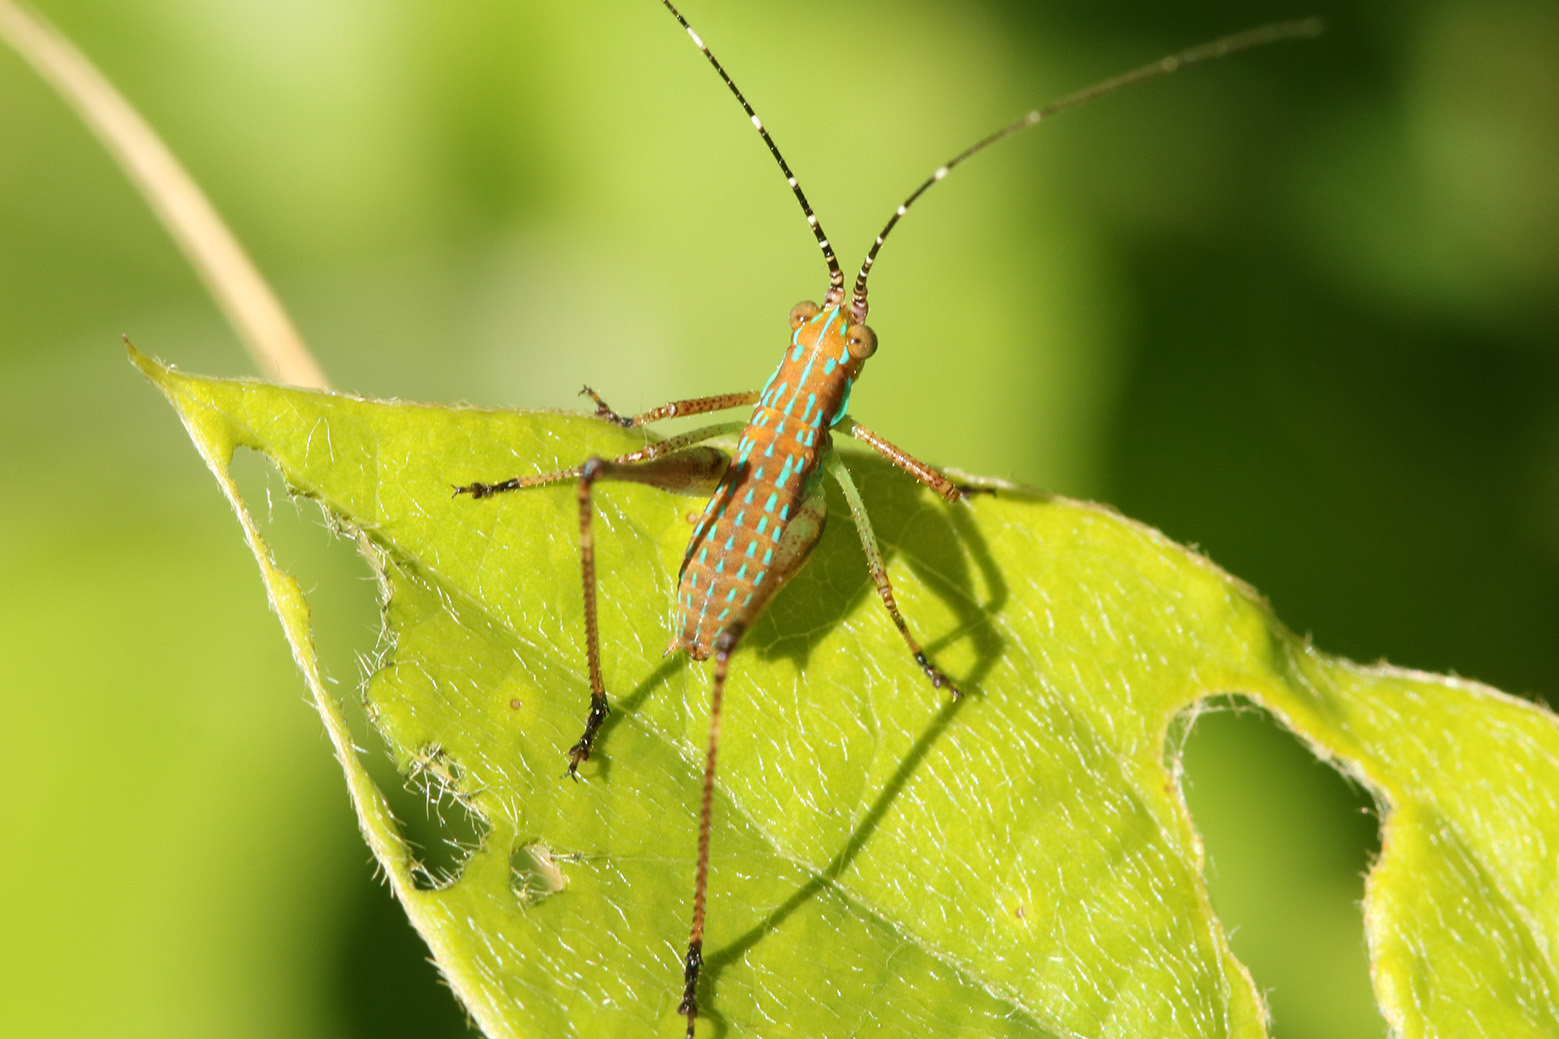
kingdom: Animalia
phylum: Arthropoda
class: Insecta
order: Orthoptera
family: Tettigoniidae
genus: Theudoria
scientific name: Theudoria melanocnemis
